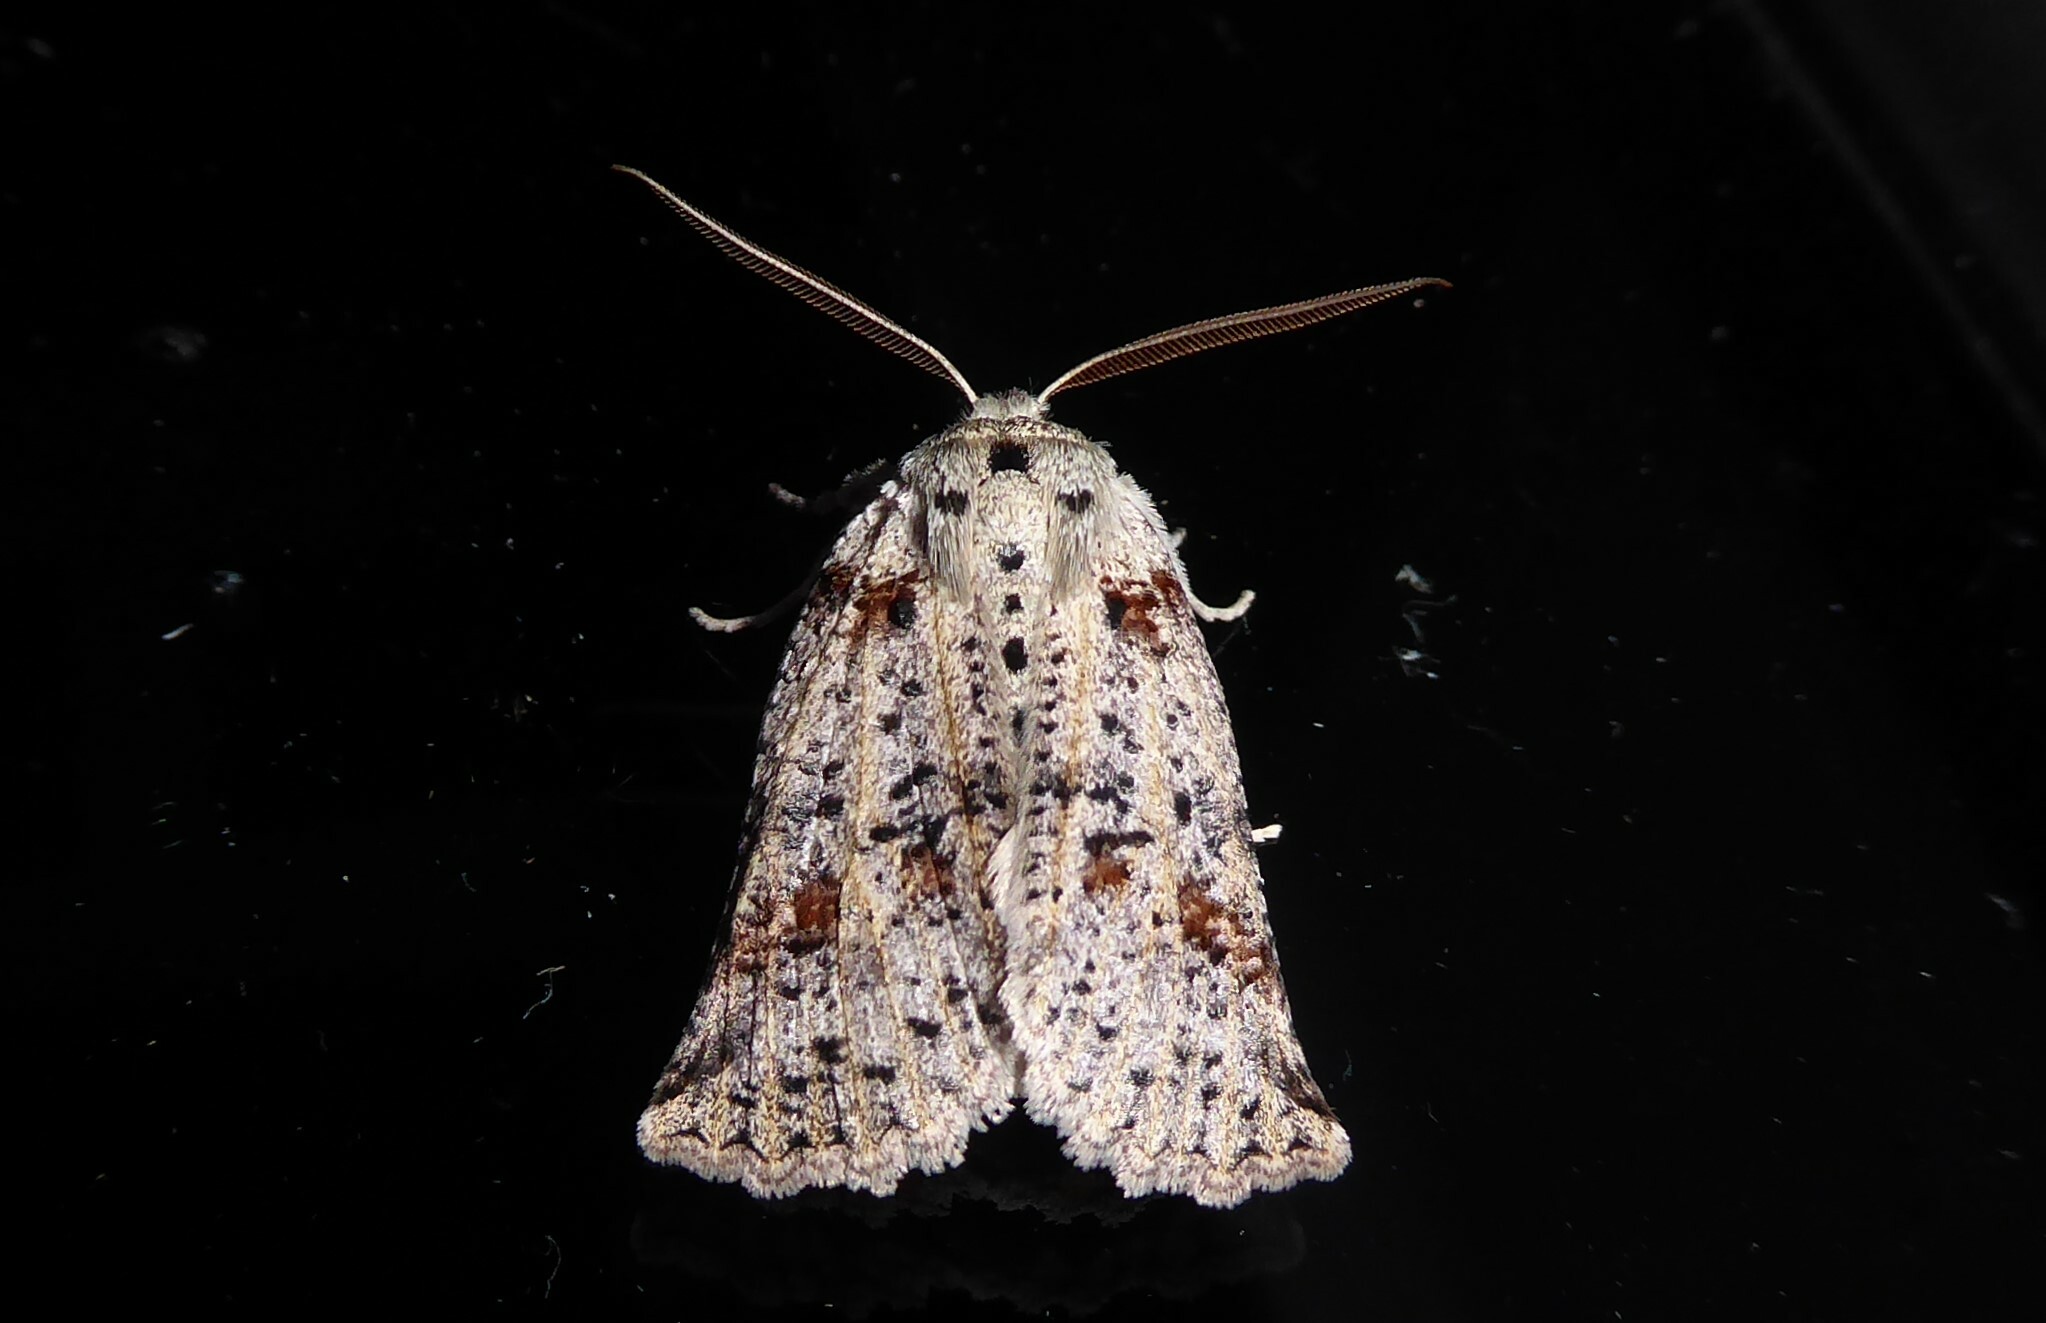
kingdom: Animalia
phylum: Arthropoda
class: Insecta
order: Lepidoptera
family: Geometridae
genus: Declana
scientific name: Declana floccosa
